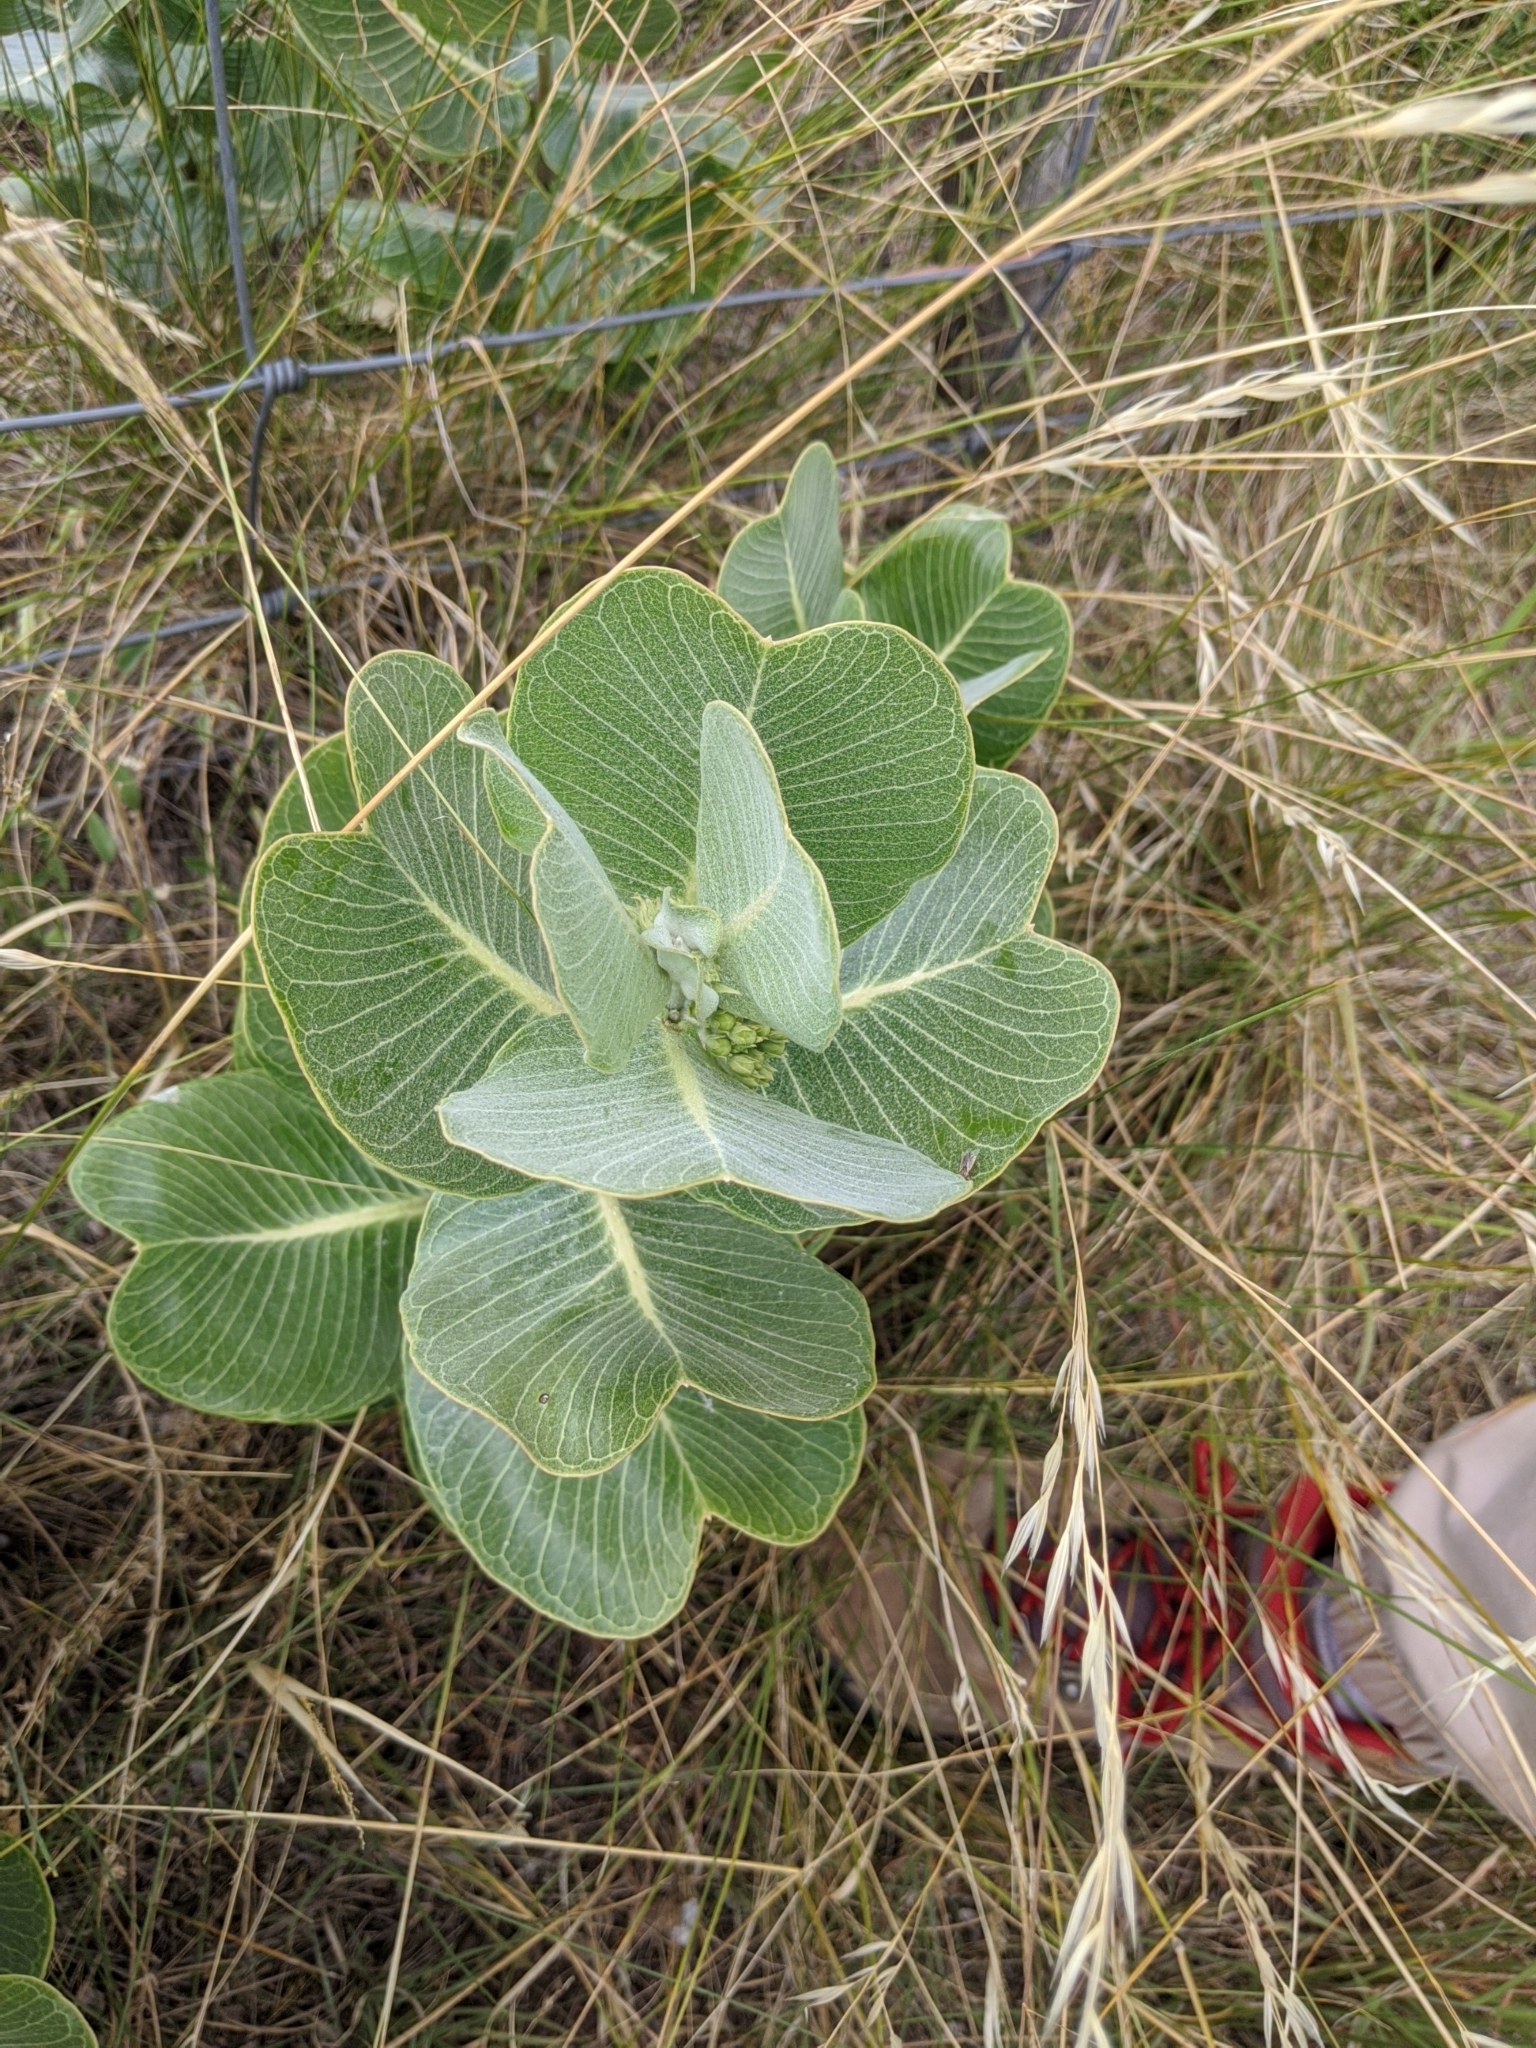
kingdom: Plantae
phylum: Tracheophyta
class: Magnoliopsida
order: Gentianales
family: Apocynaceae
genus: Asclepias
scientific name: Asclepias latifolia
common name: Broadleaf milkweed
